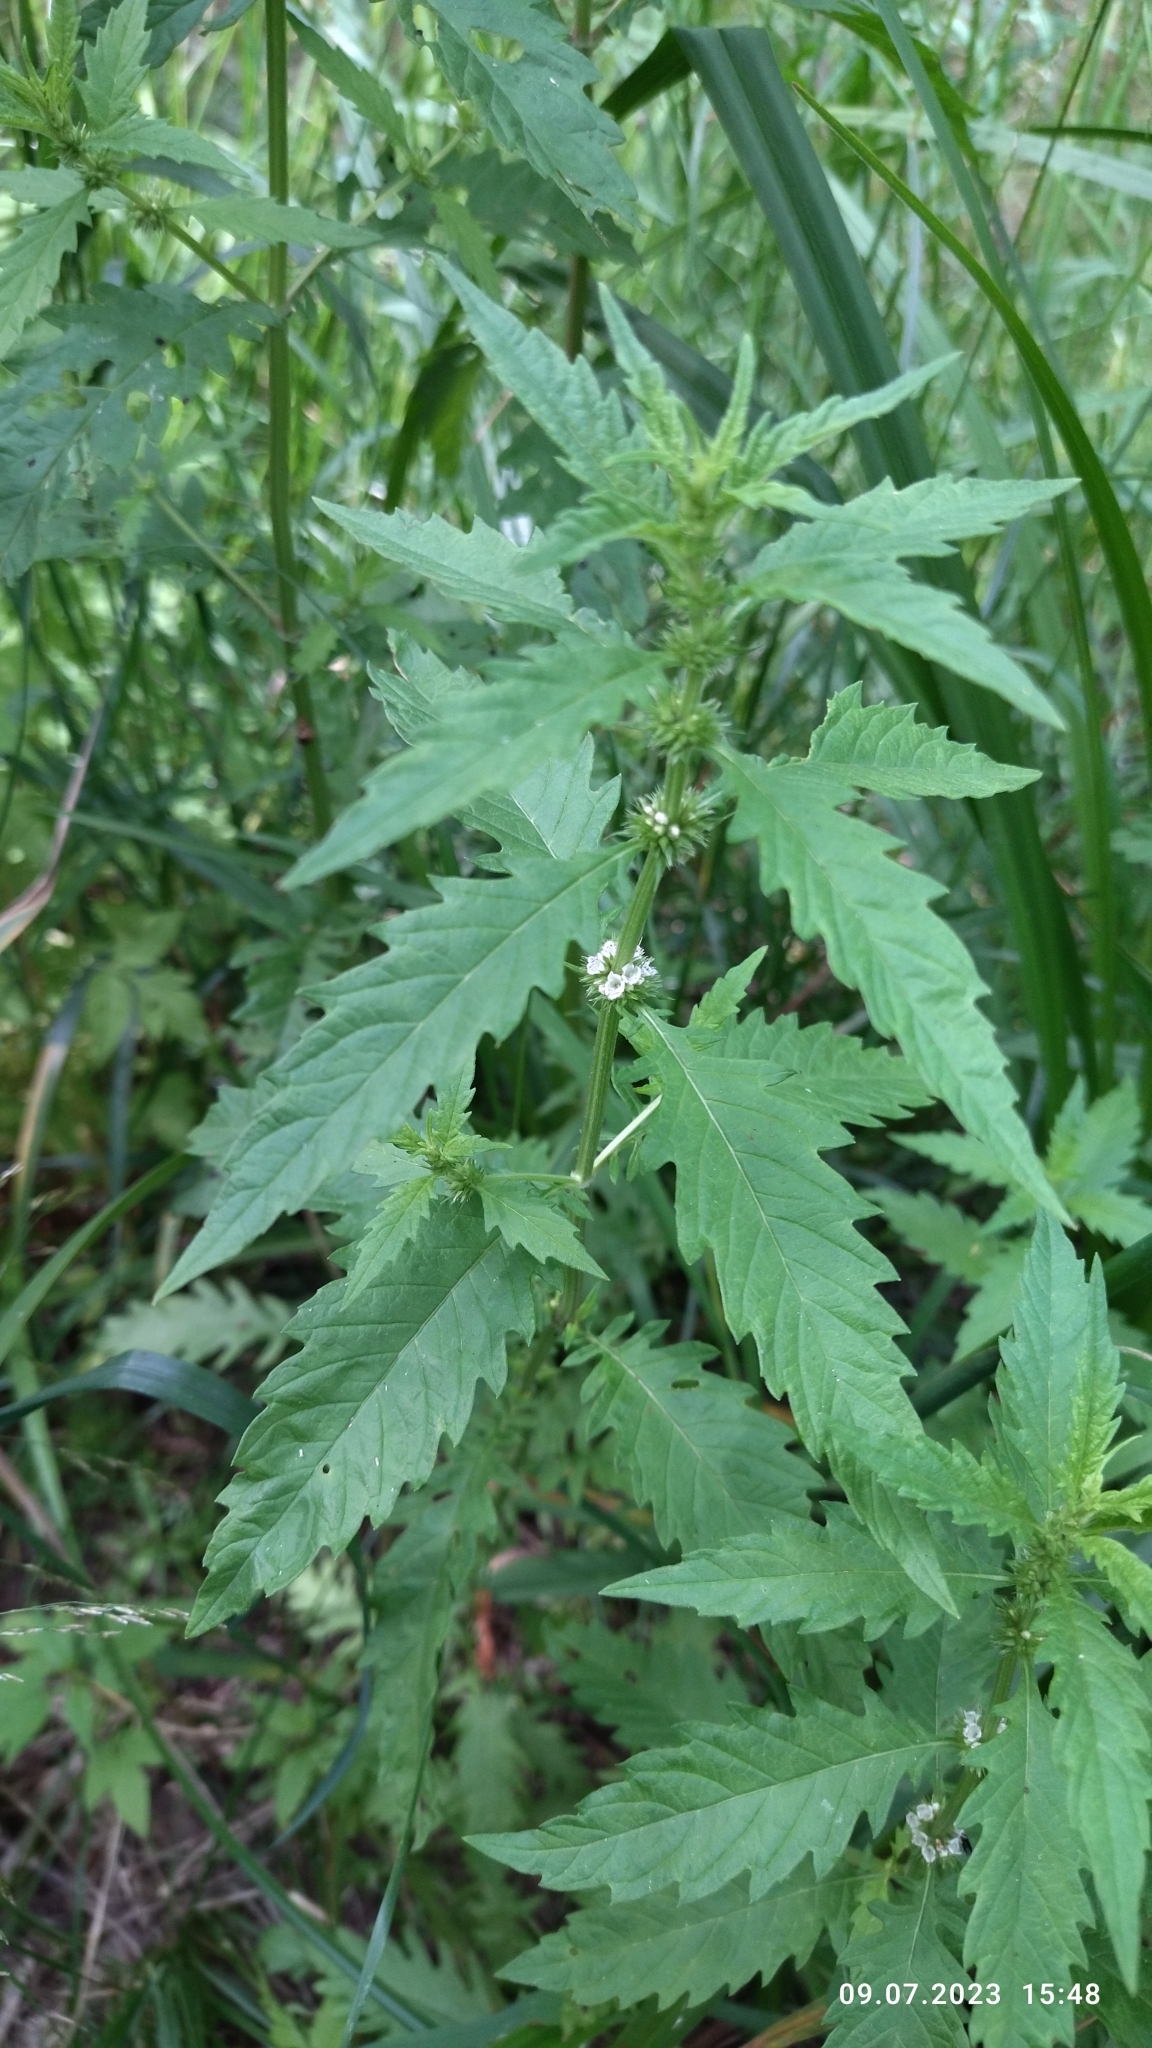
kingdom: Plantae
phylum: Tracheophyta
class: Magnoliopsida
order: Lamiales
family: Lamiaceae
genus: Lycopus
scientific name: Lycopus europaeus
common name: European bugleweed
